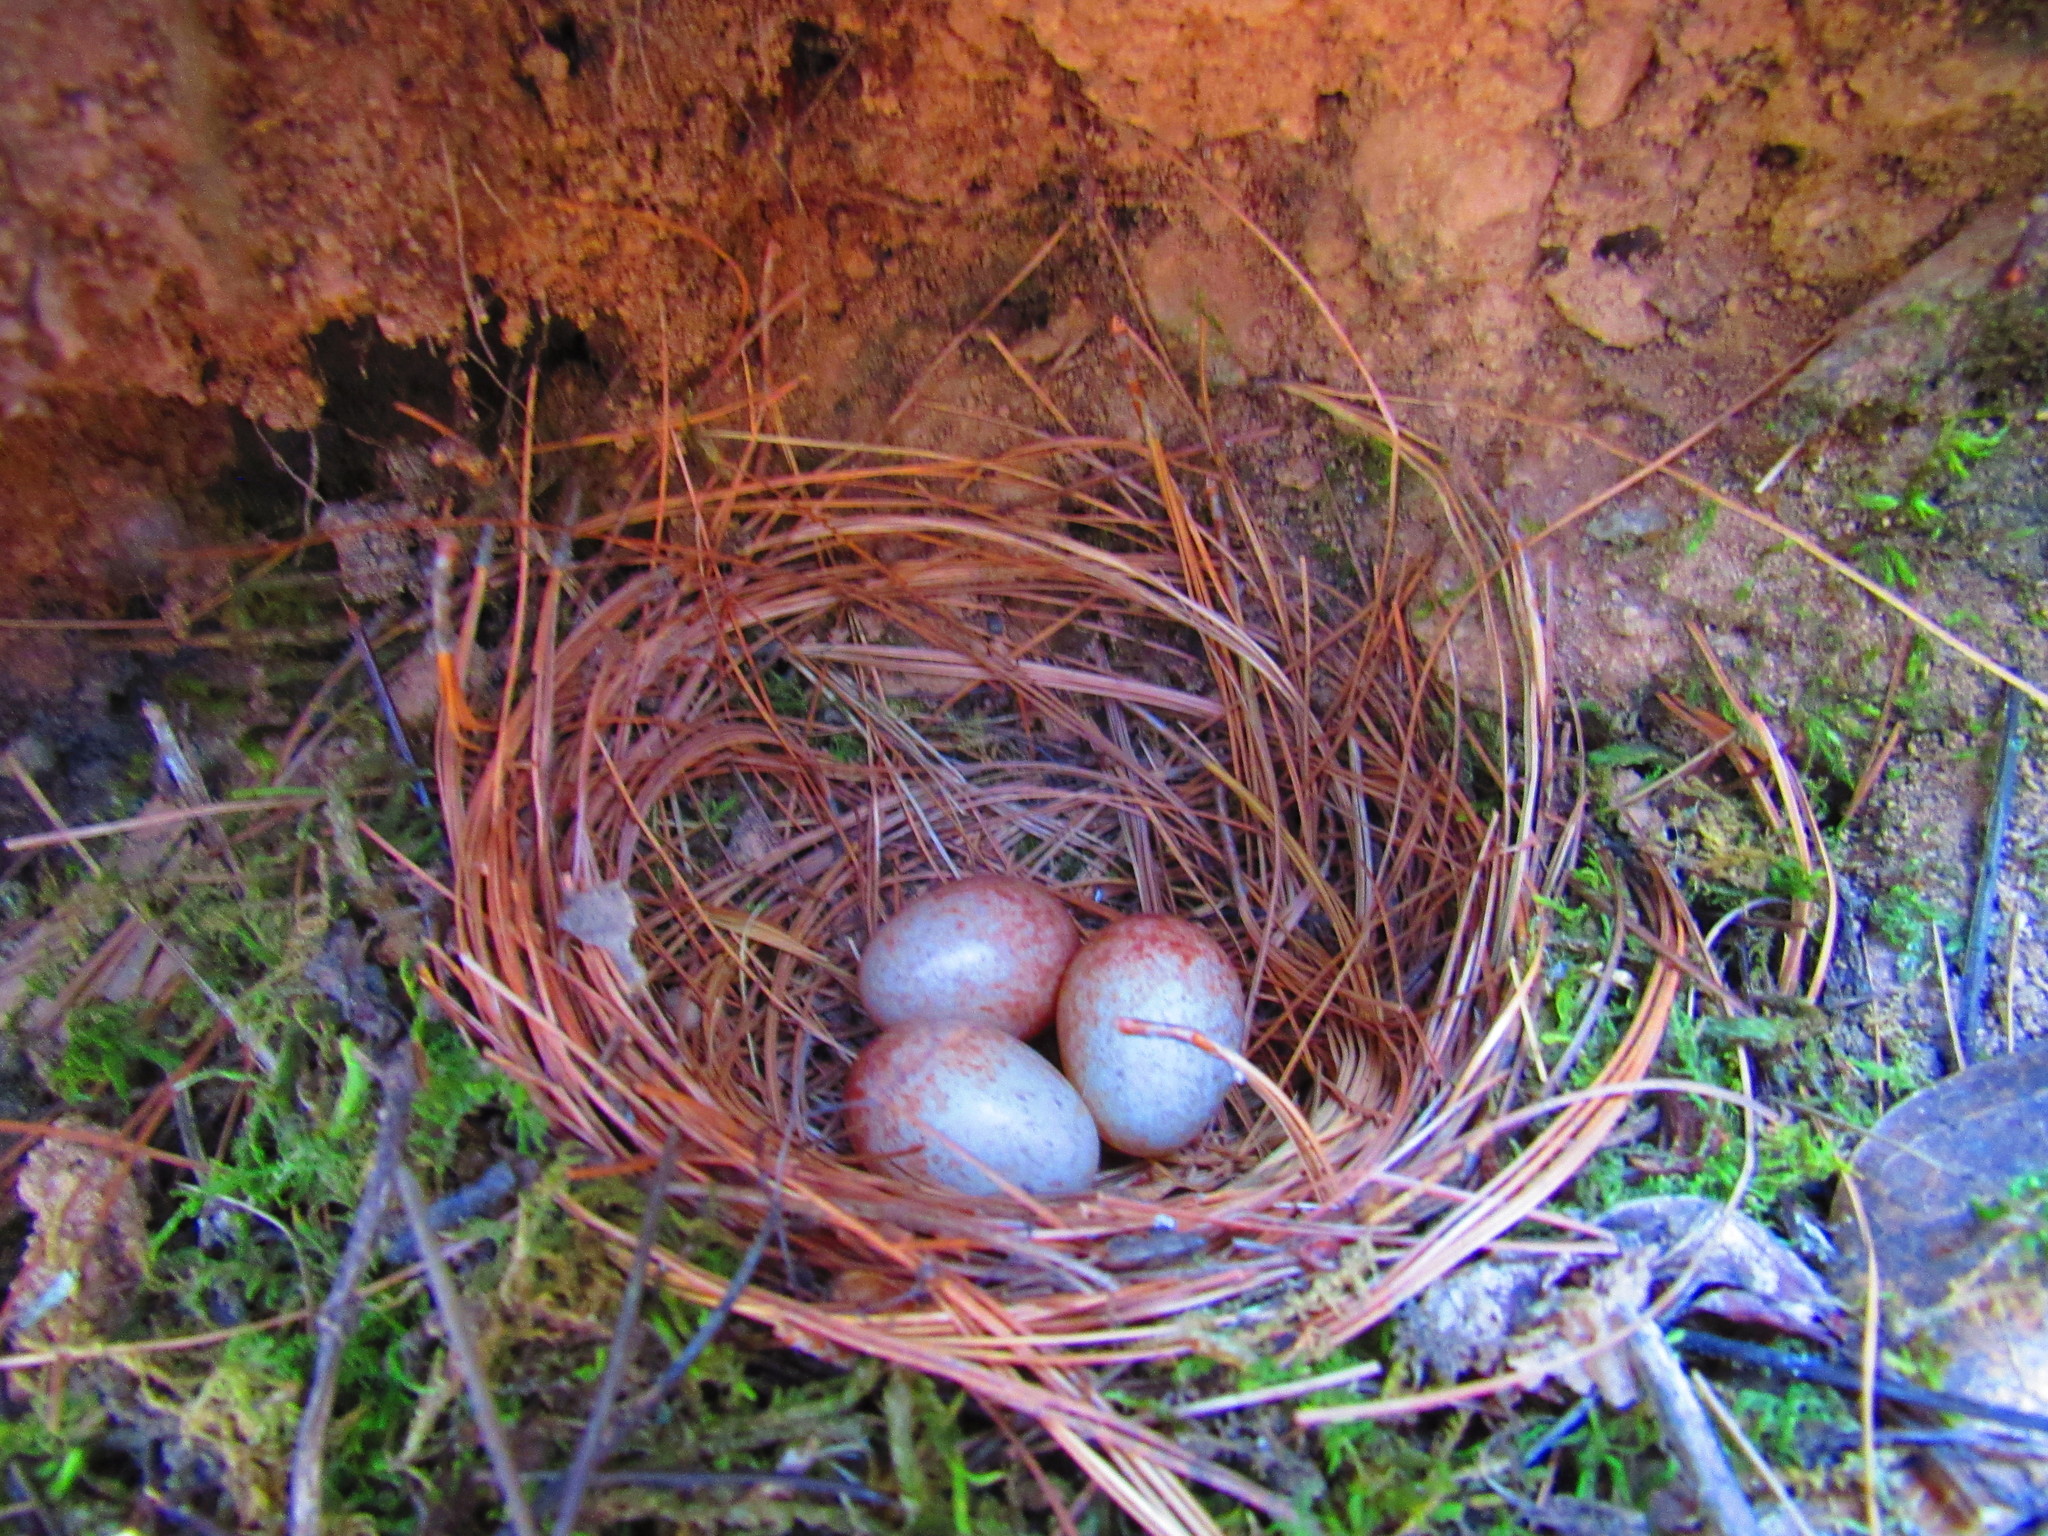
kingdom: Animalia
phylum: Chordata
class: Aves
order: Passeriformes
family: Turdidae
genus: Myadestes
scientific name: Myadestes occidentalis
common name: Brown-backed solitaire
